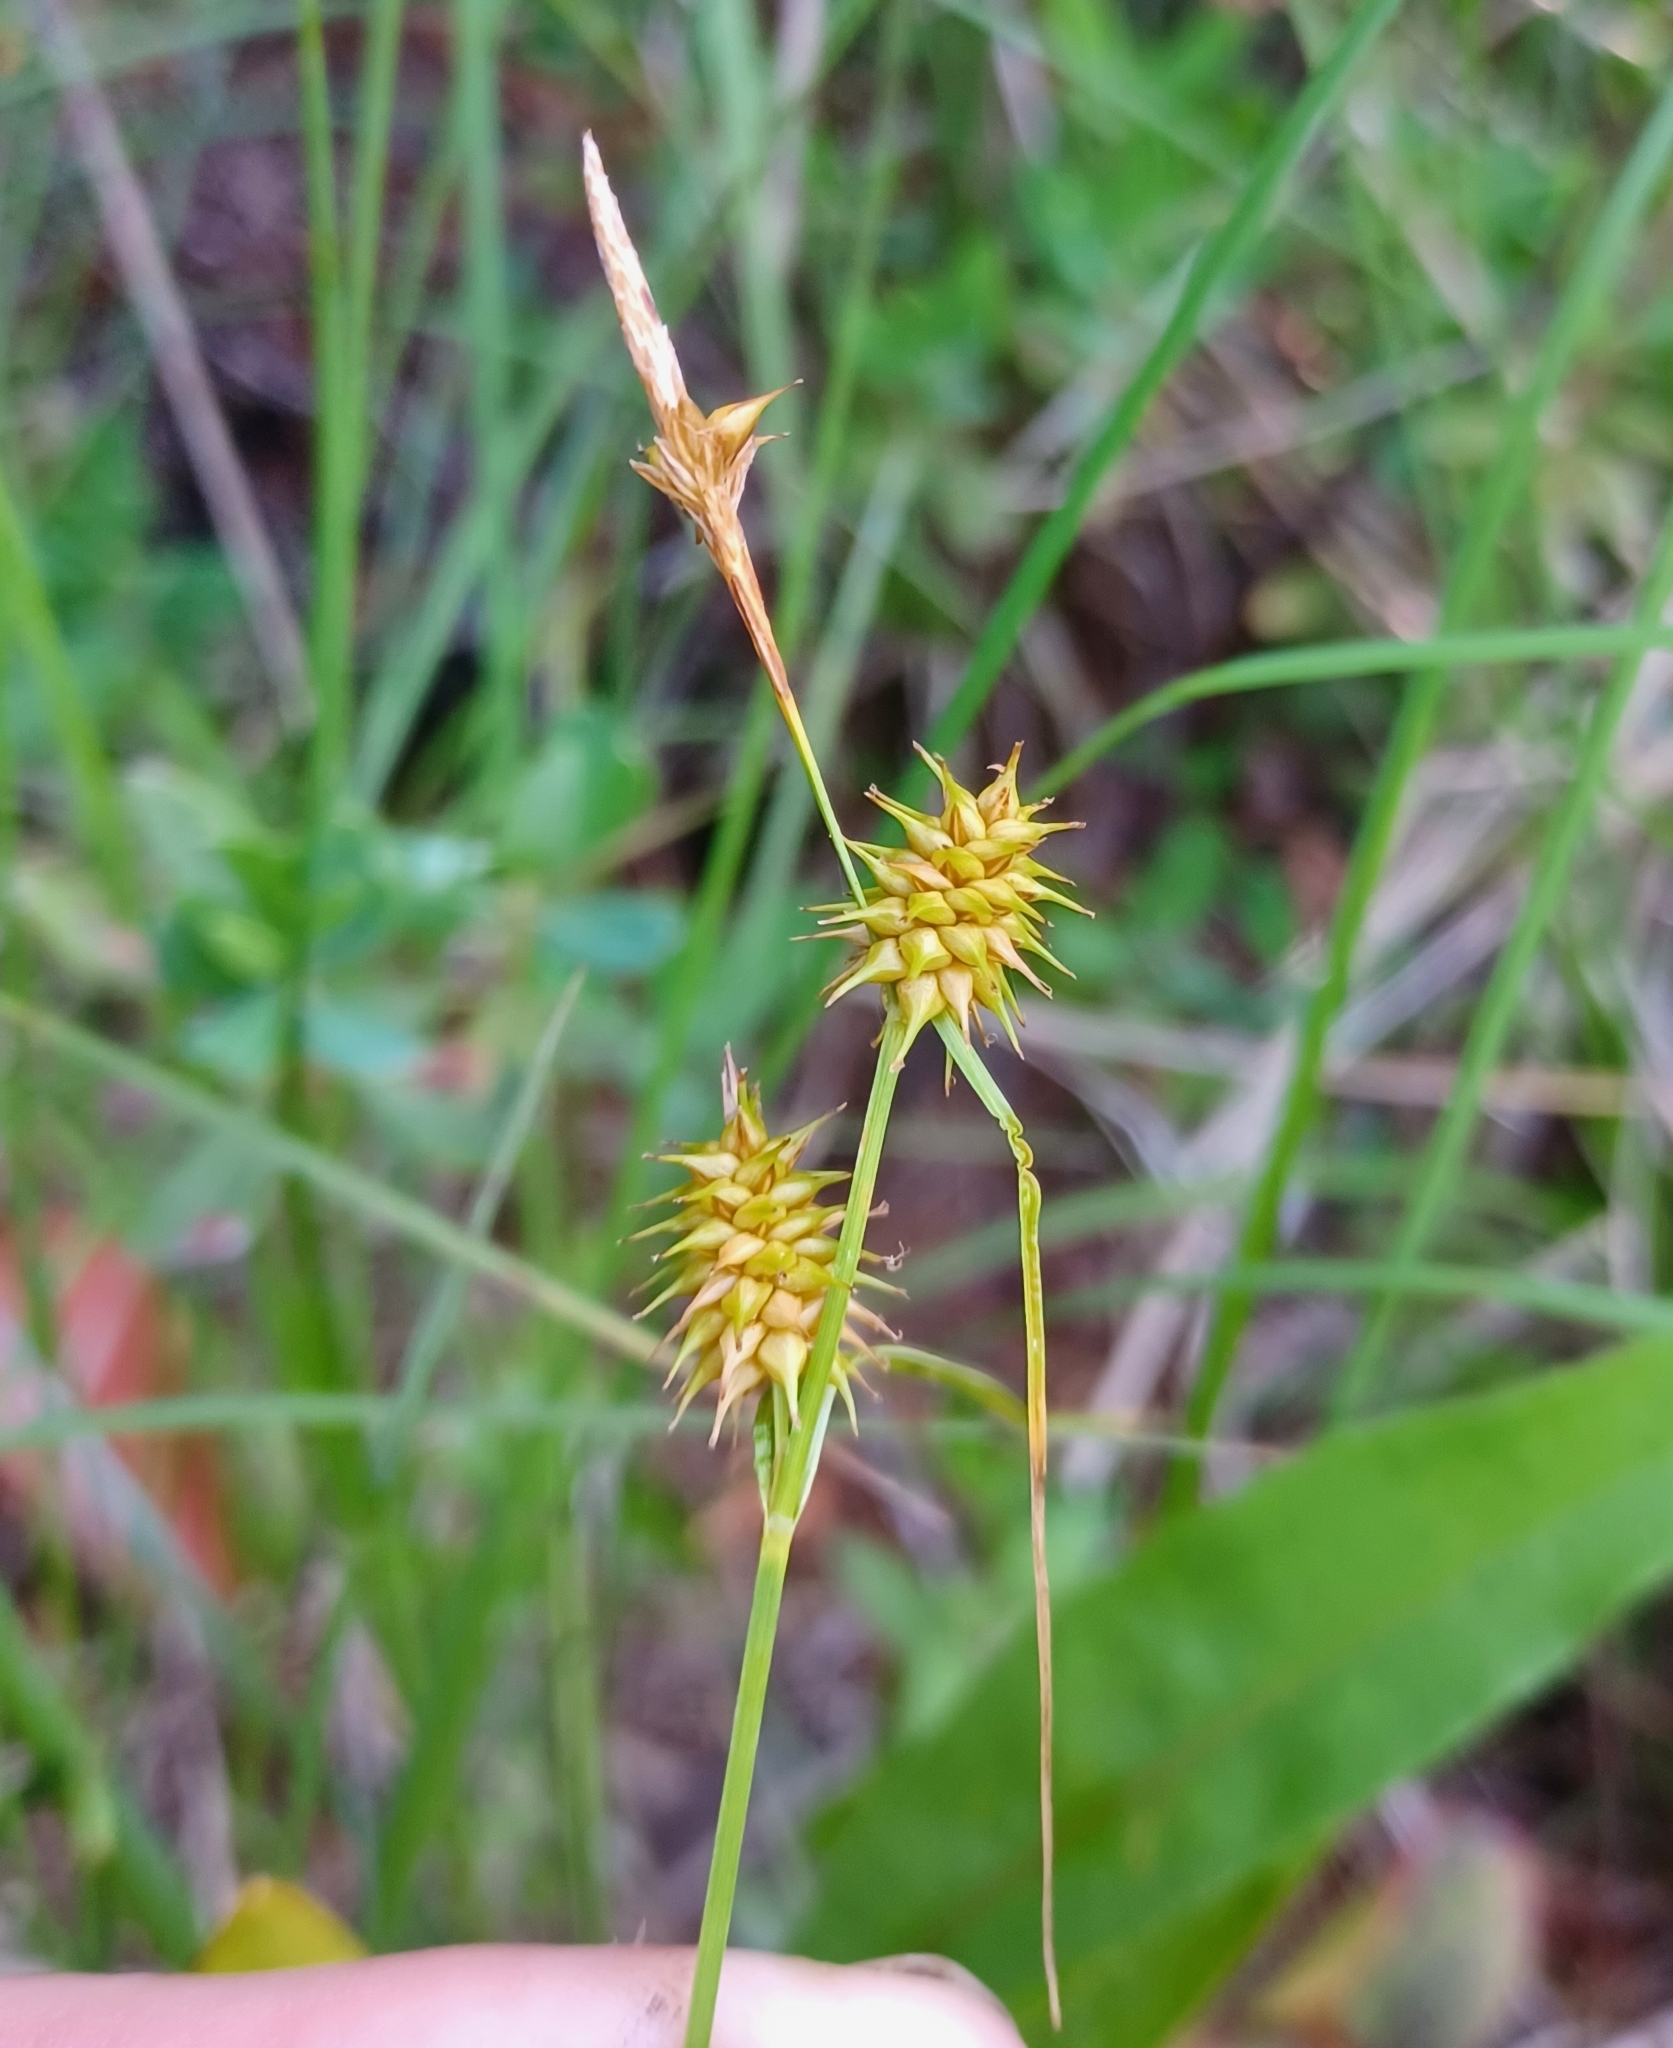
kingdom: Plantae
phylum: Tracheophyta
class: Liliopsida
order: Poales
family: Cyperaceae
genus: Carex
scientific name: Carex flava
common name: Large yellow-sedge
